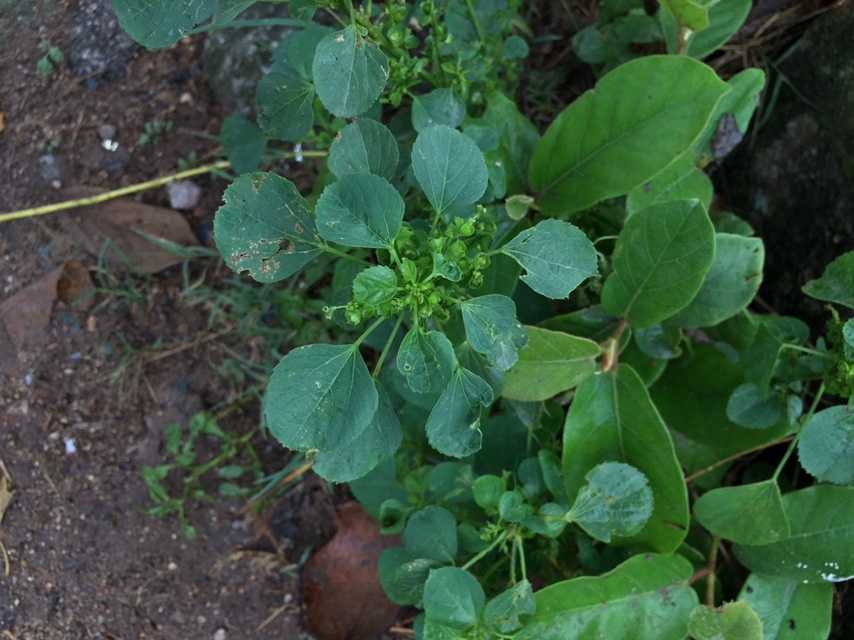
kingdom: Plantae
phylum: Tracheophyta
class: Magnoliopsida
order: Malpighiales
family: Euphorbiaceae
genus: Acalypha
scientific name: Acalypha indica
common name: Indian acalypha
